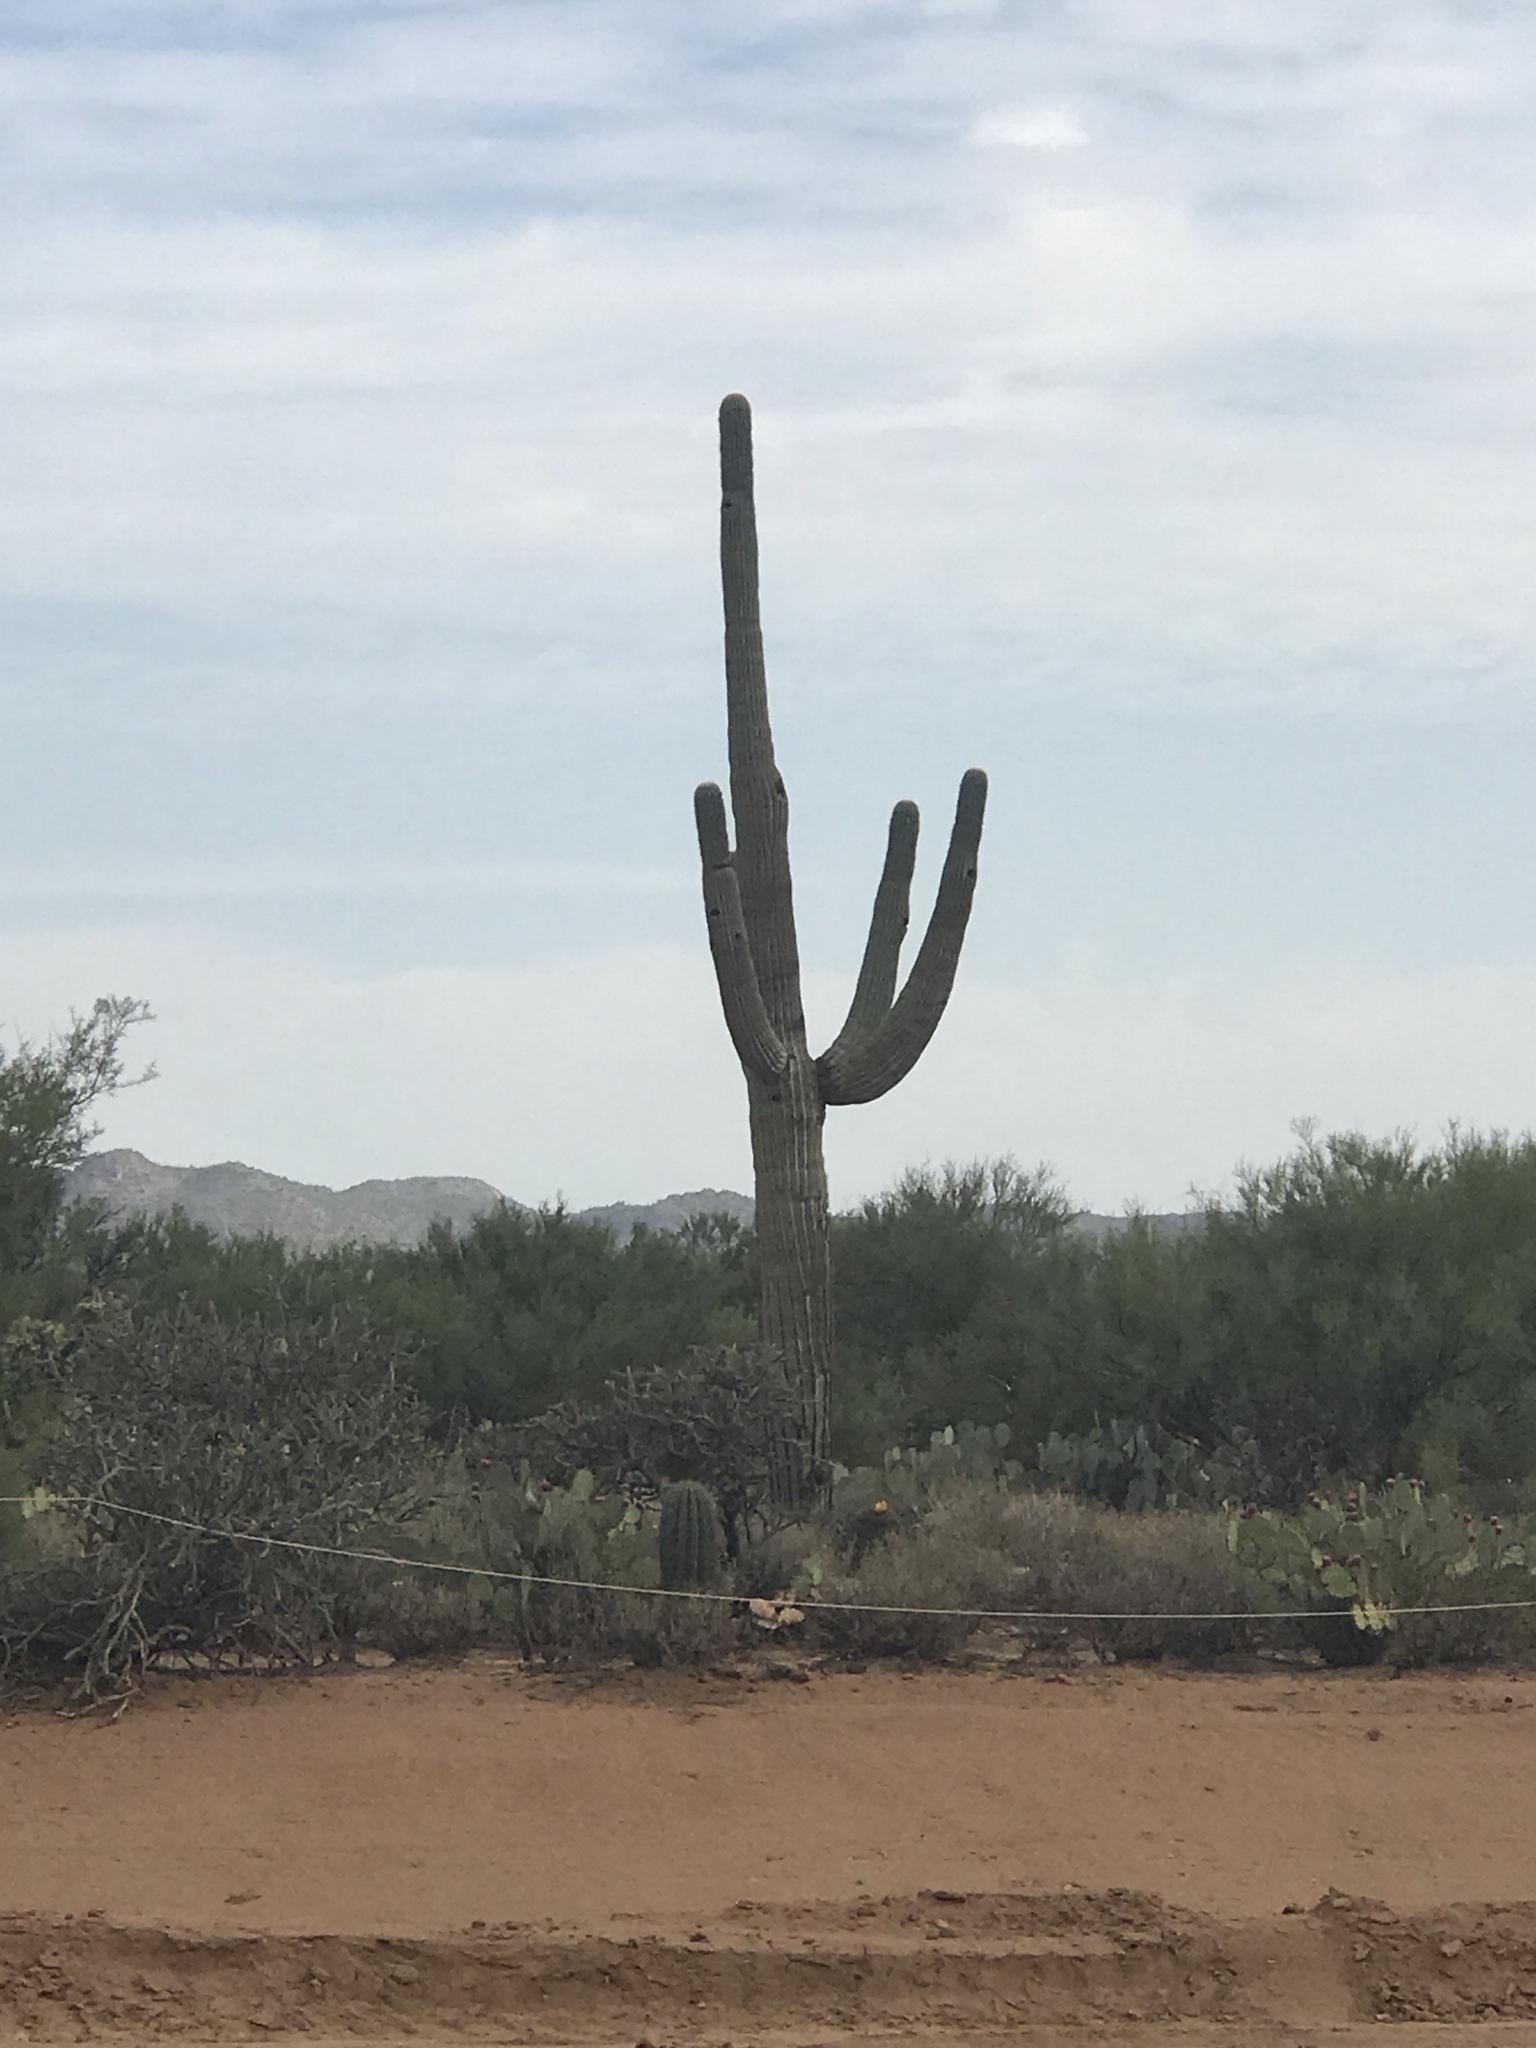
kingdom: Plantae
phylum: Tracheophyta
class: Magnoliopsida
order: Caryophyllales
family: Cactaceae
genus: Carnegiea
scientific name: Carnegiea gigantea
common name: Saguaro
